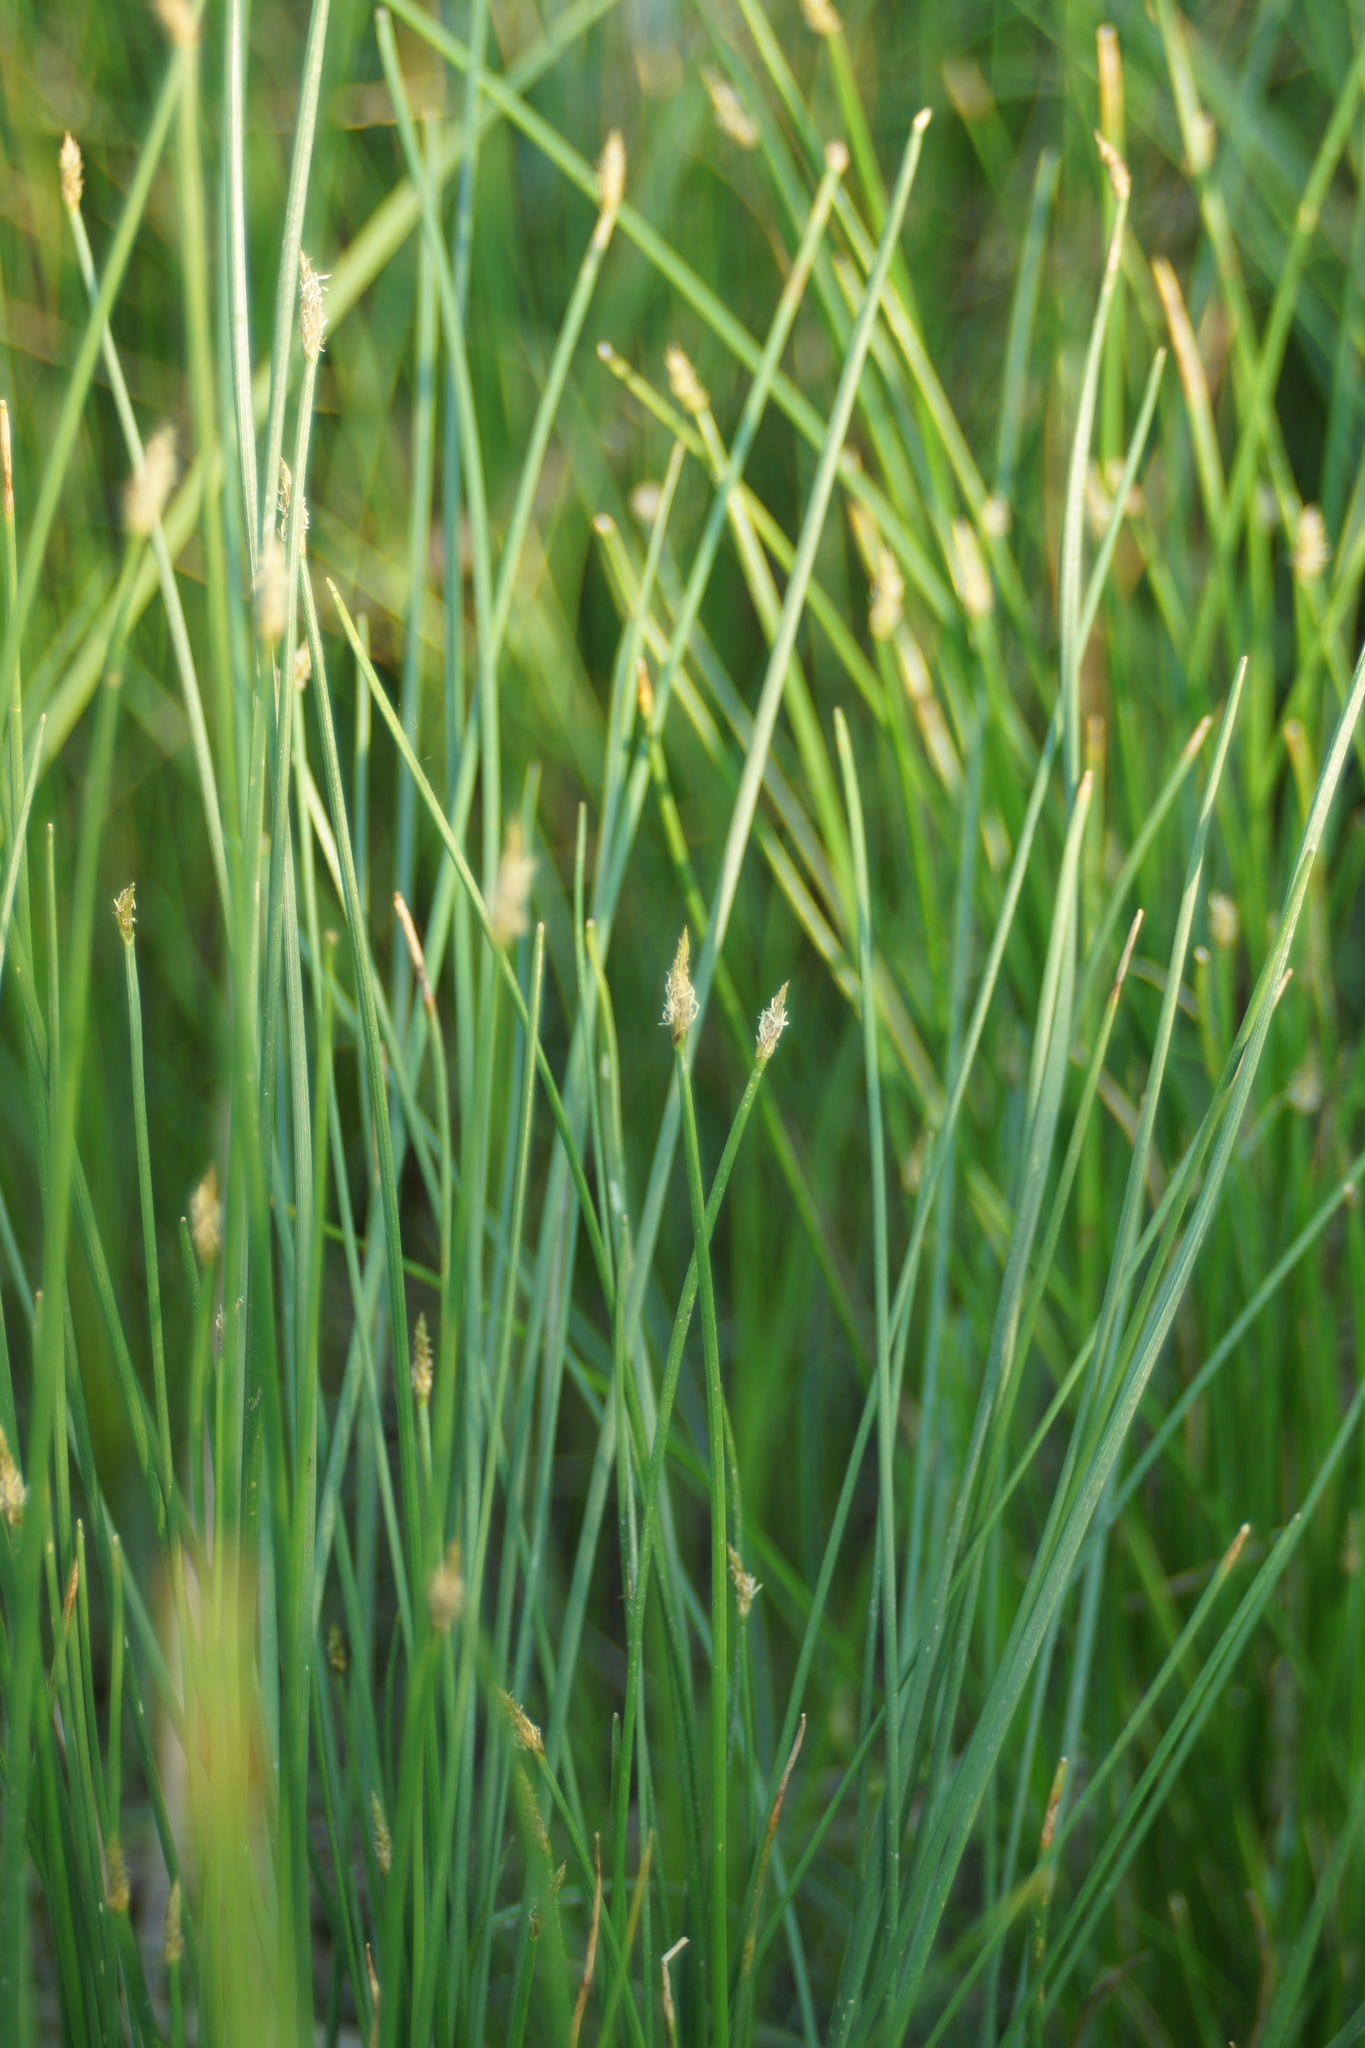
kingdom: Plantae
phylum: Tracheophyta
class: Liliopsida
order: Poales
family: Cyperaceae
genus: Eleocharis
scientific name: Eleocharis palustris
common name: Common spike-rush
